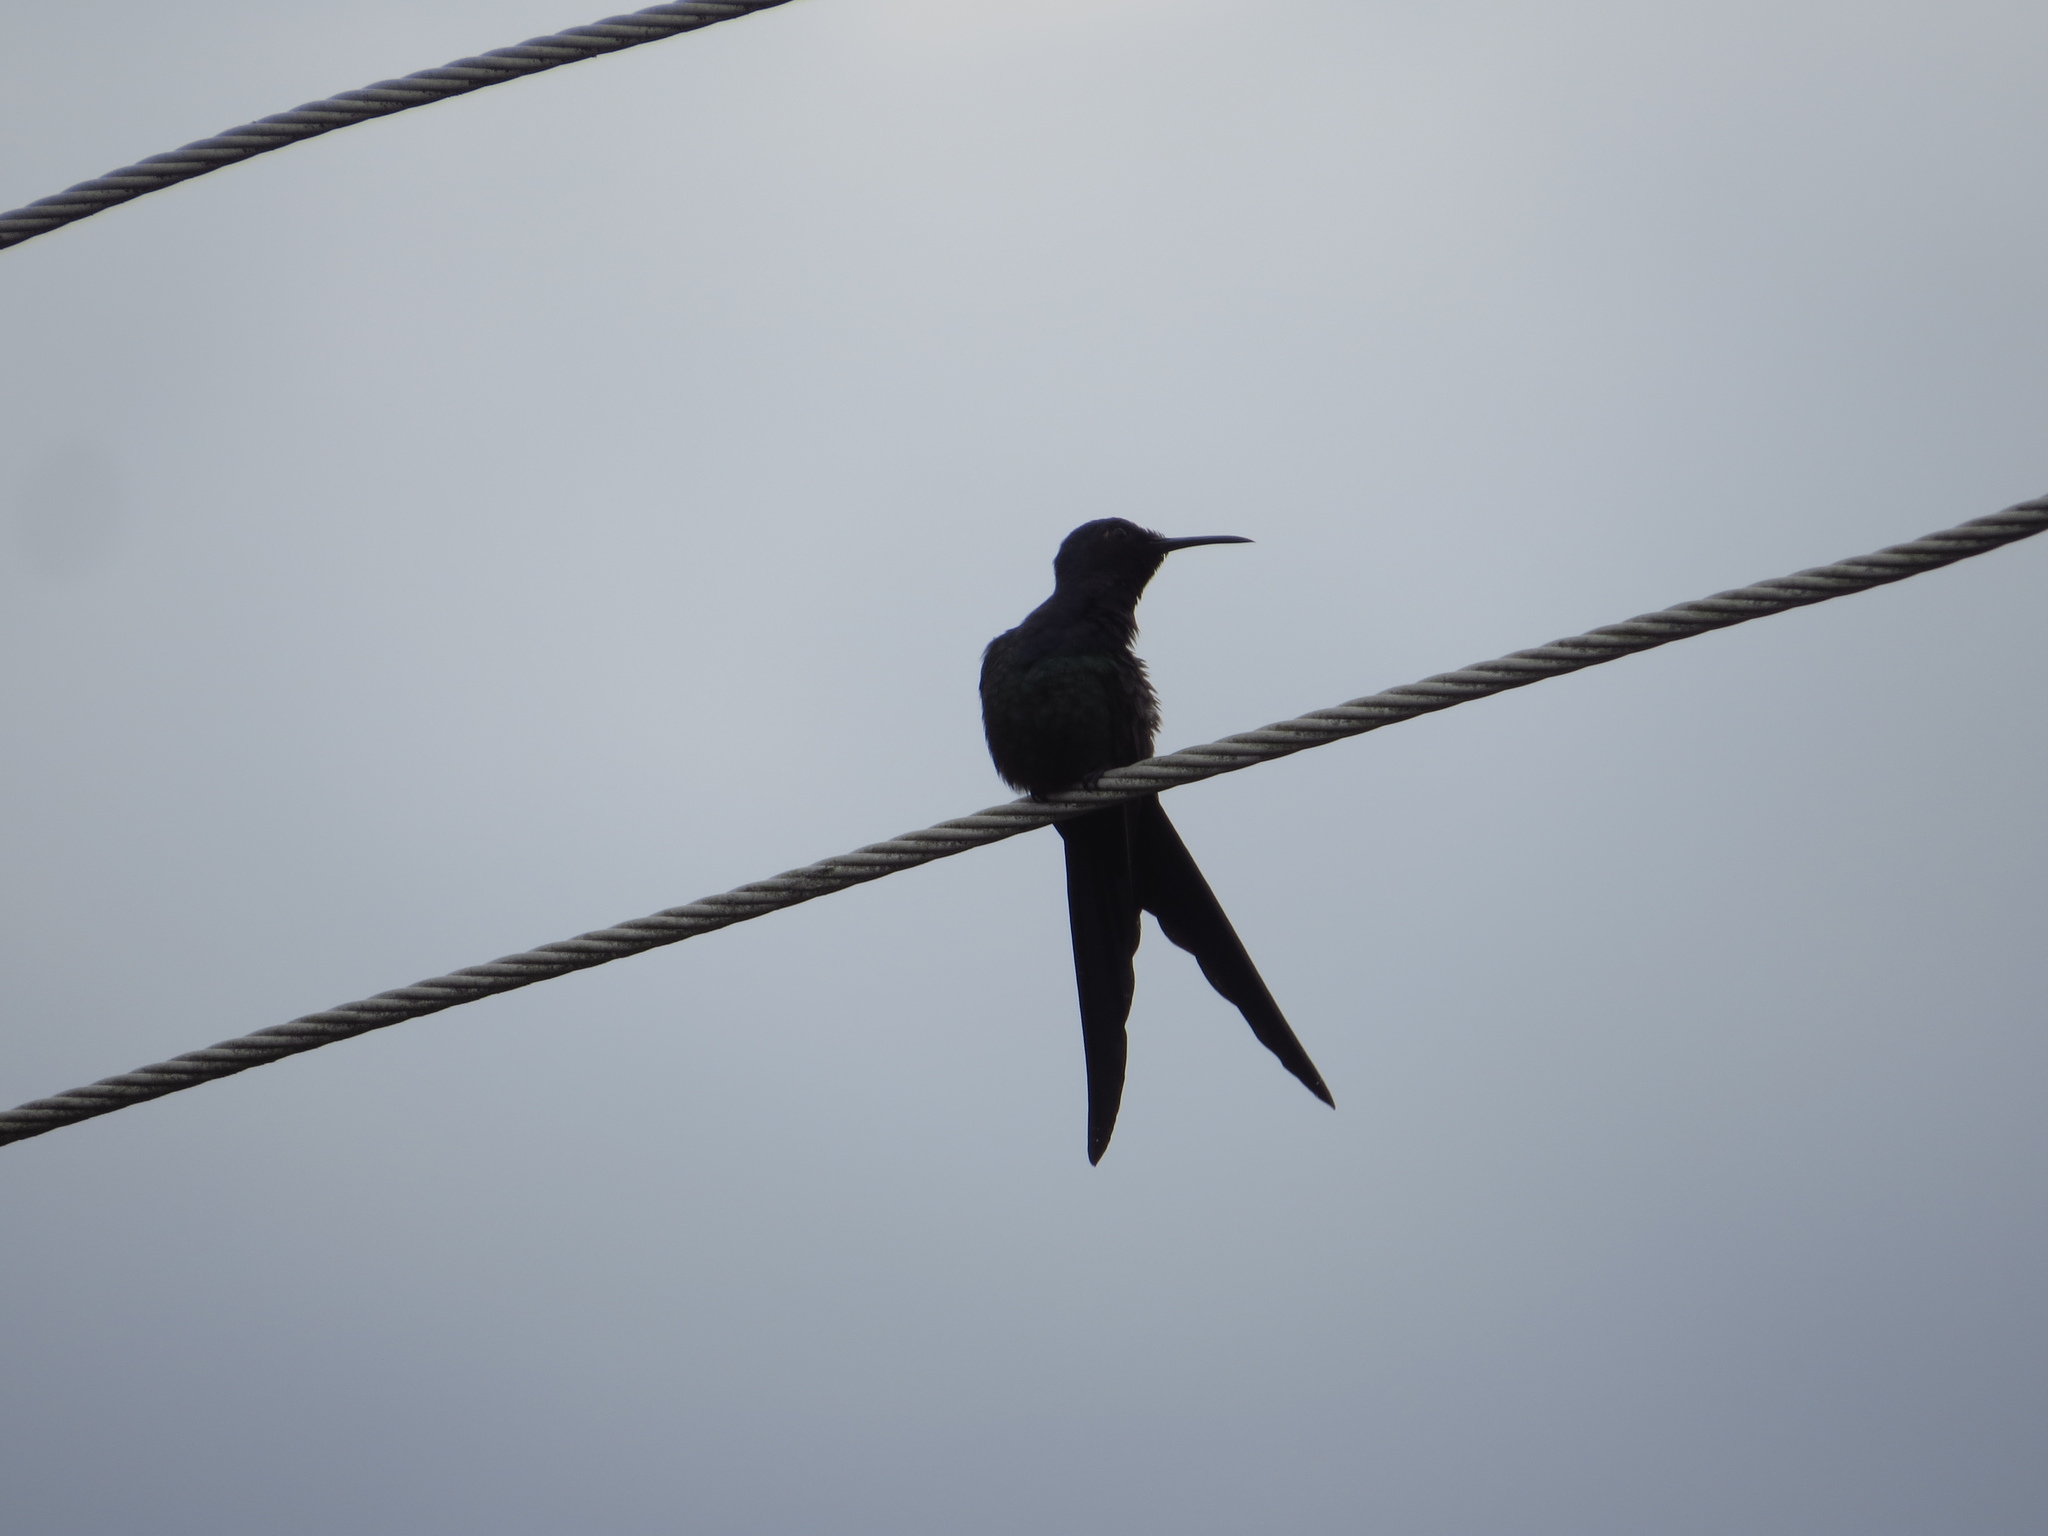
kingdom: Animalia
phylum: Chordata
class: Aves
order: Apodiformes
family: Trochilidae
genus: Eupetomena
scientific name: Eupetomena macroura
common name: Swallow-tailed hummingbird
